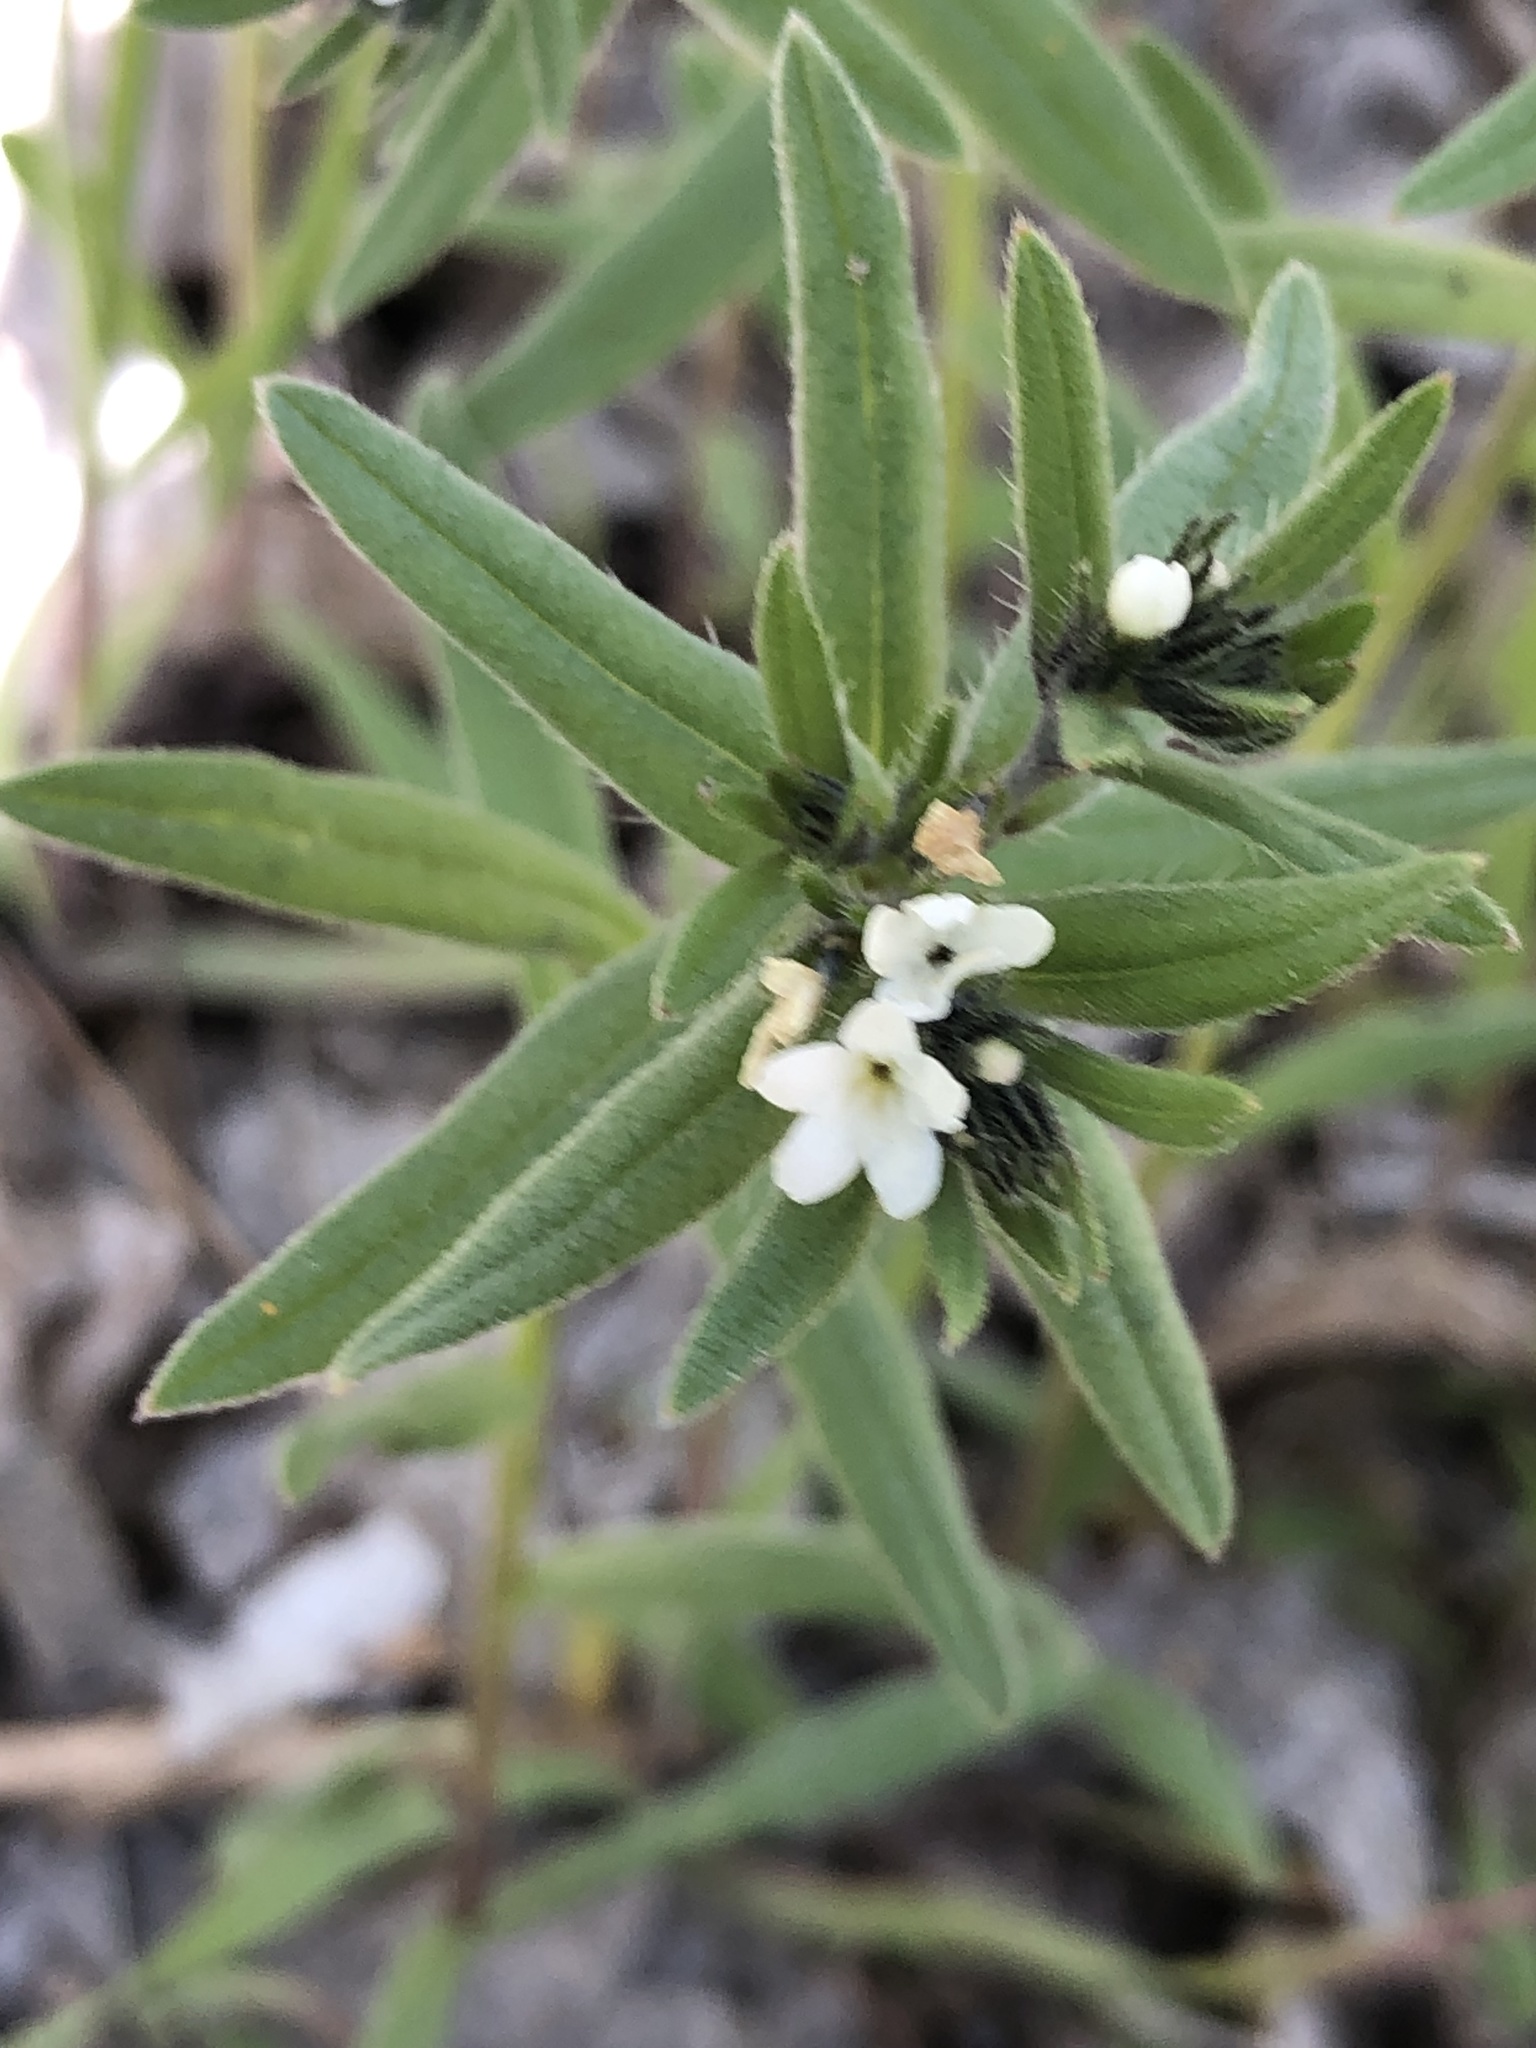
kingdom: Plantae
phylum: Tracheophyta
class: Magnoliopsida
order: Boraginales
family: Boraginaceae
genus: Buglossoides
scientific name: Buglossoides arvensis
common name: Corn gromwell
